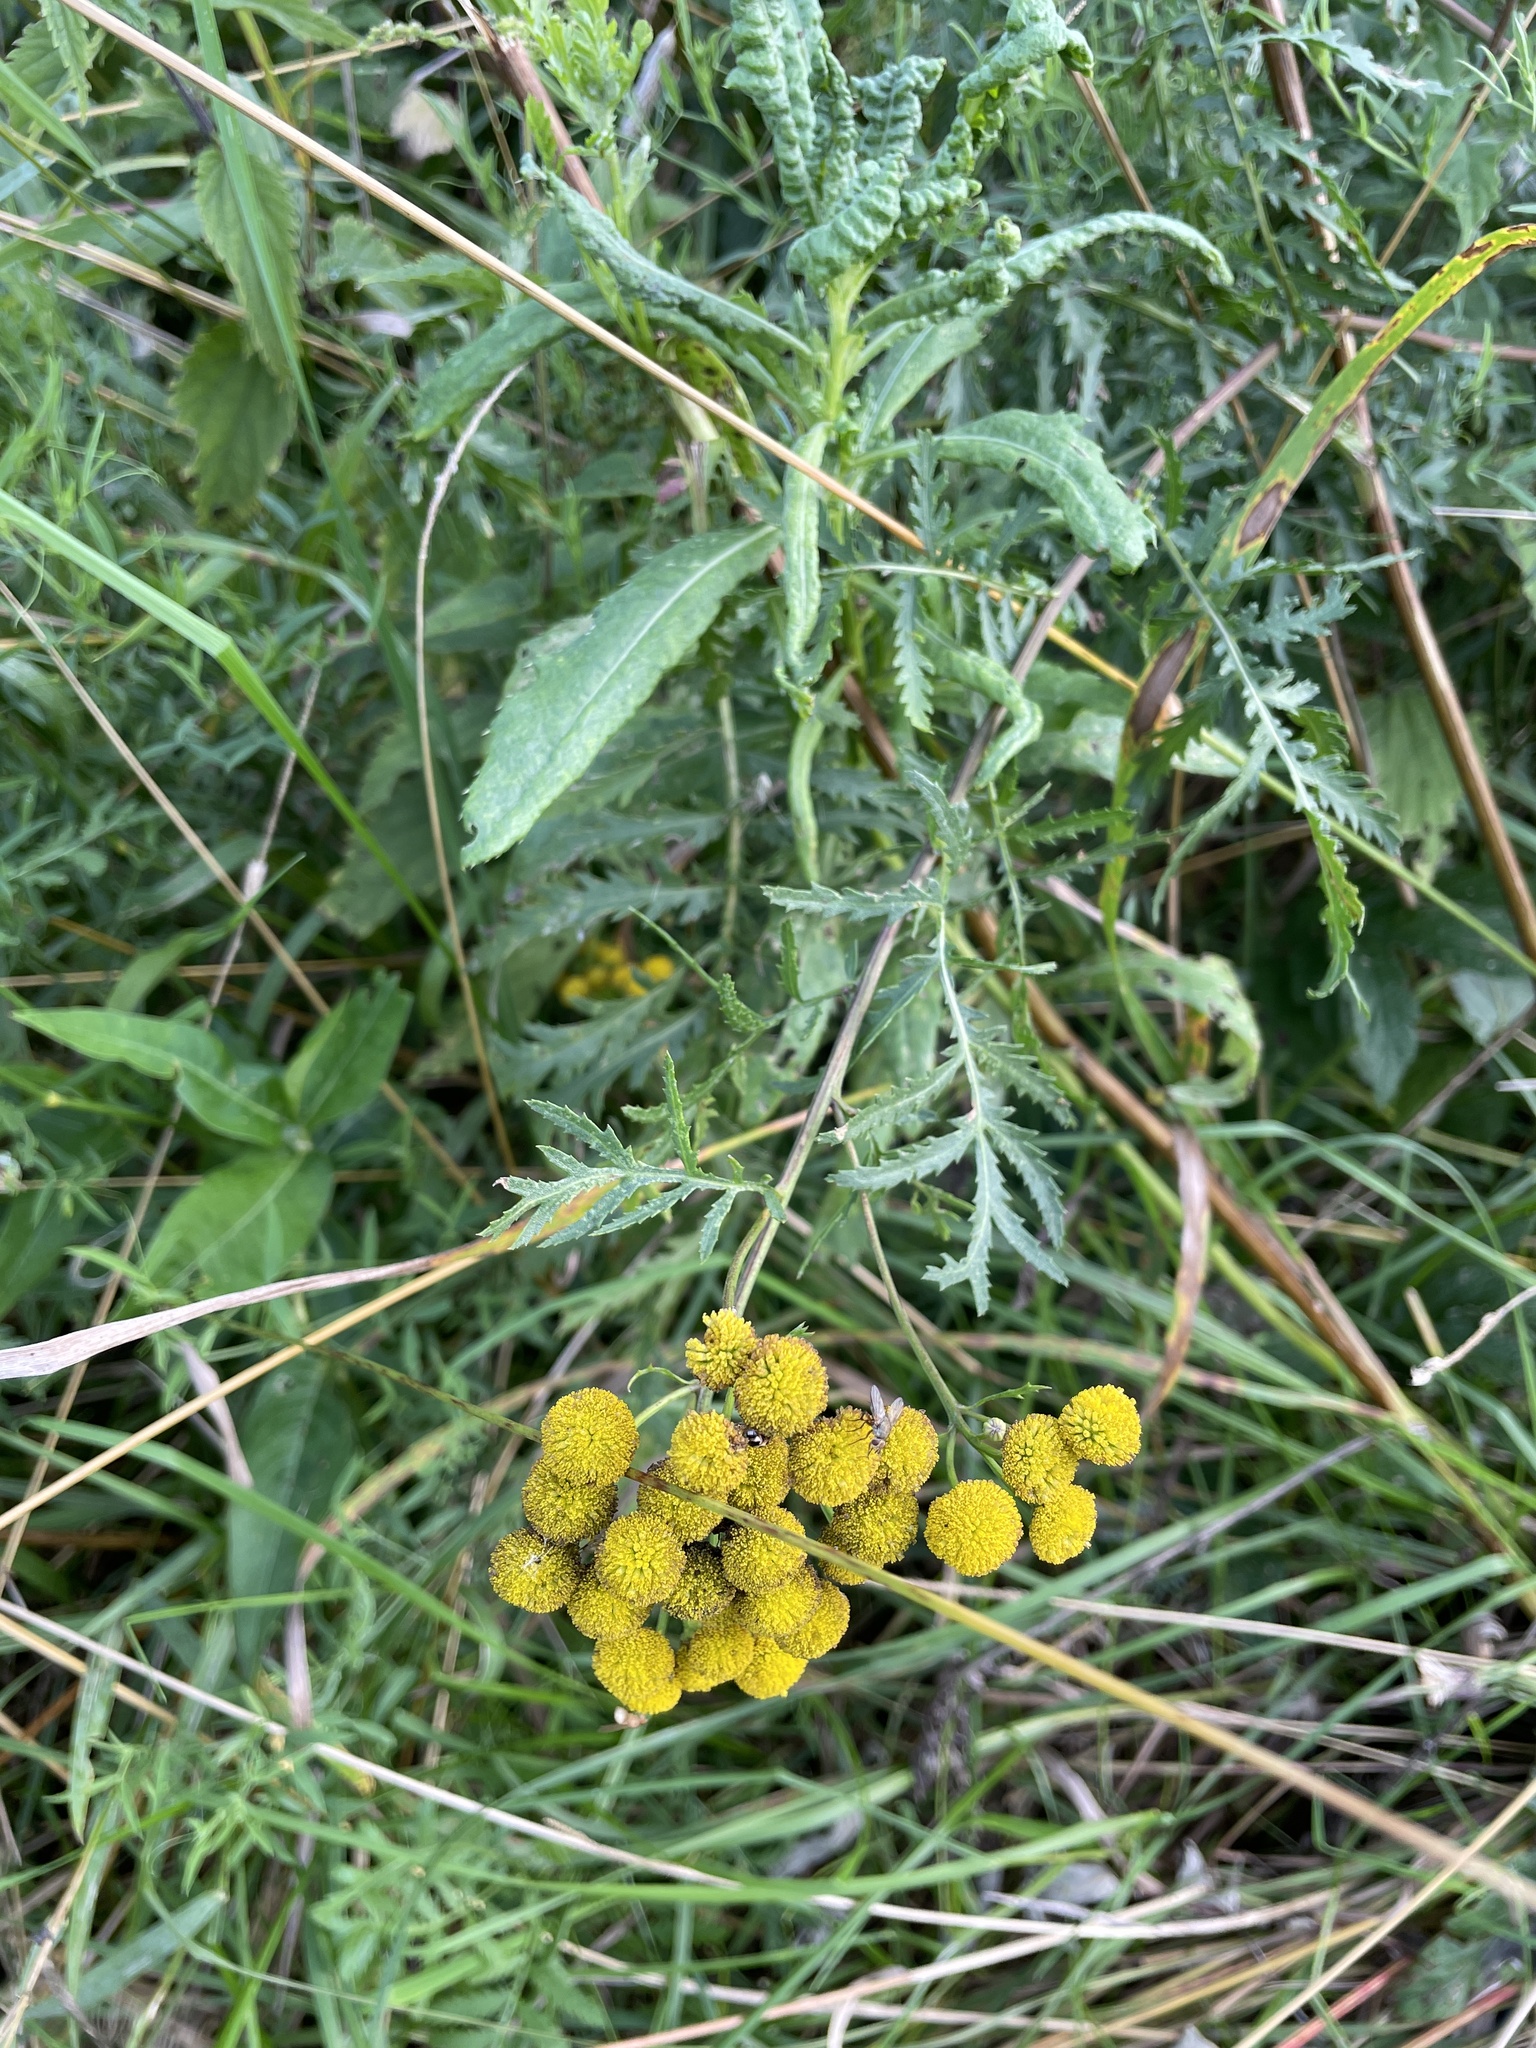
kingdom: Plantae
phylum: Tracheophyta
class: Magnoliopsida
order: Asterales
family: Asteraceae
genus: Tanacetum
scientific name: Tanacetum vulgare
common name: Common tansy
